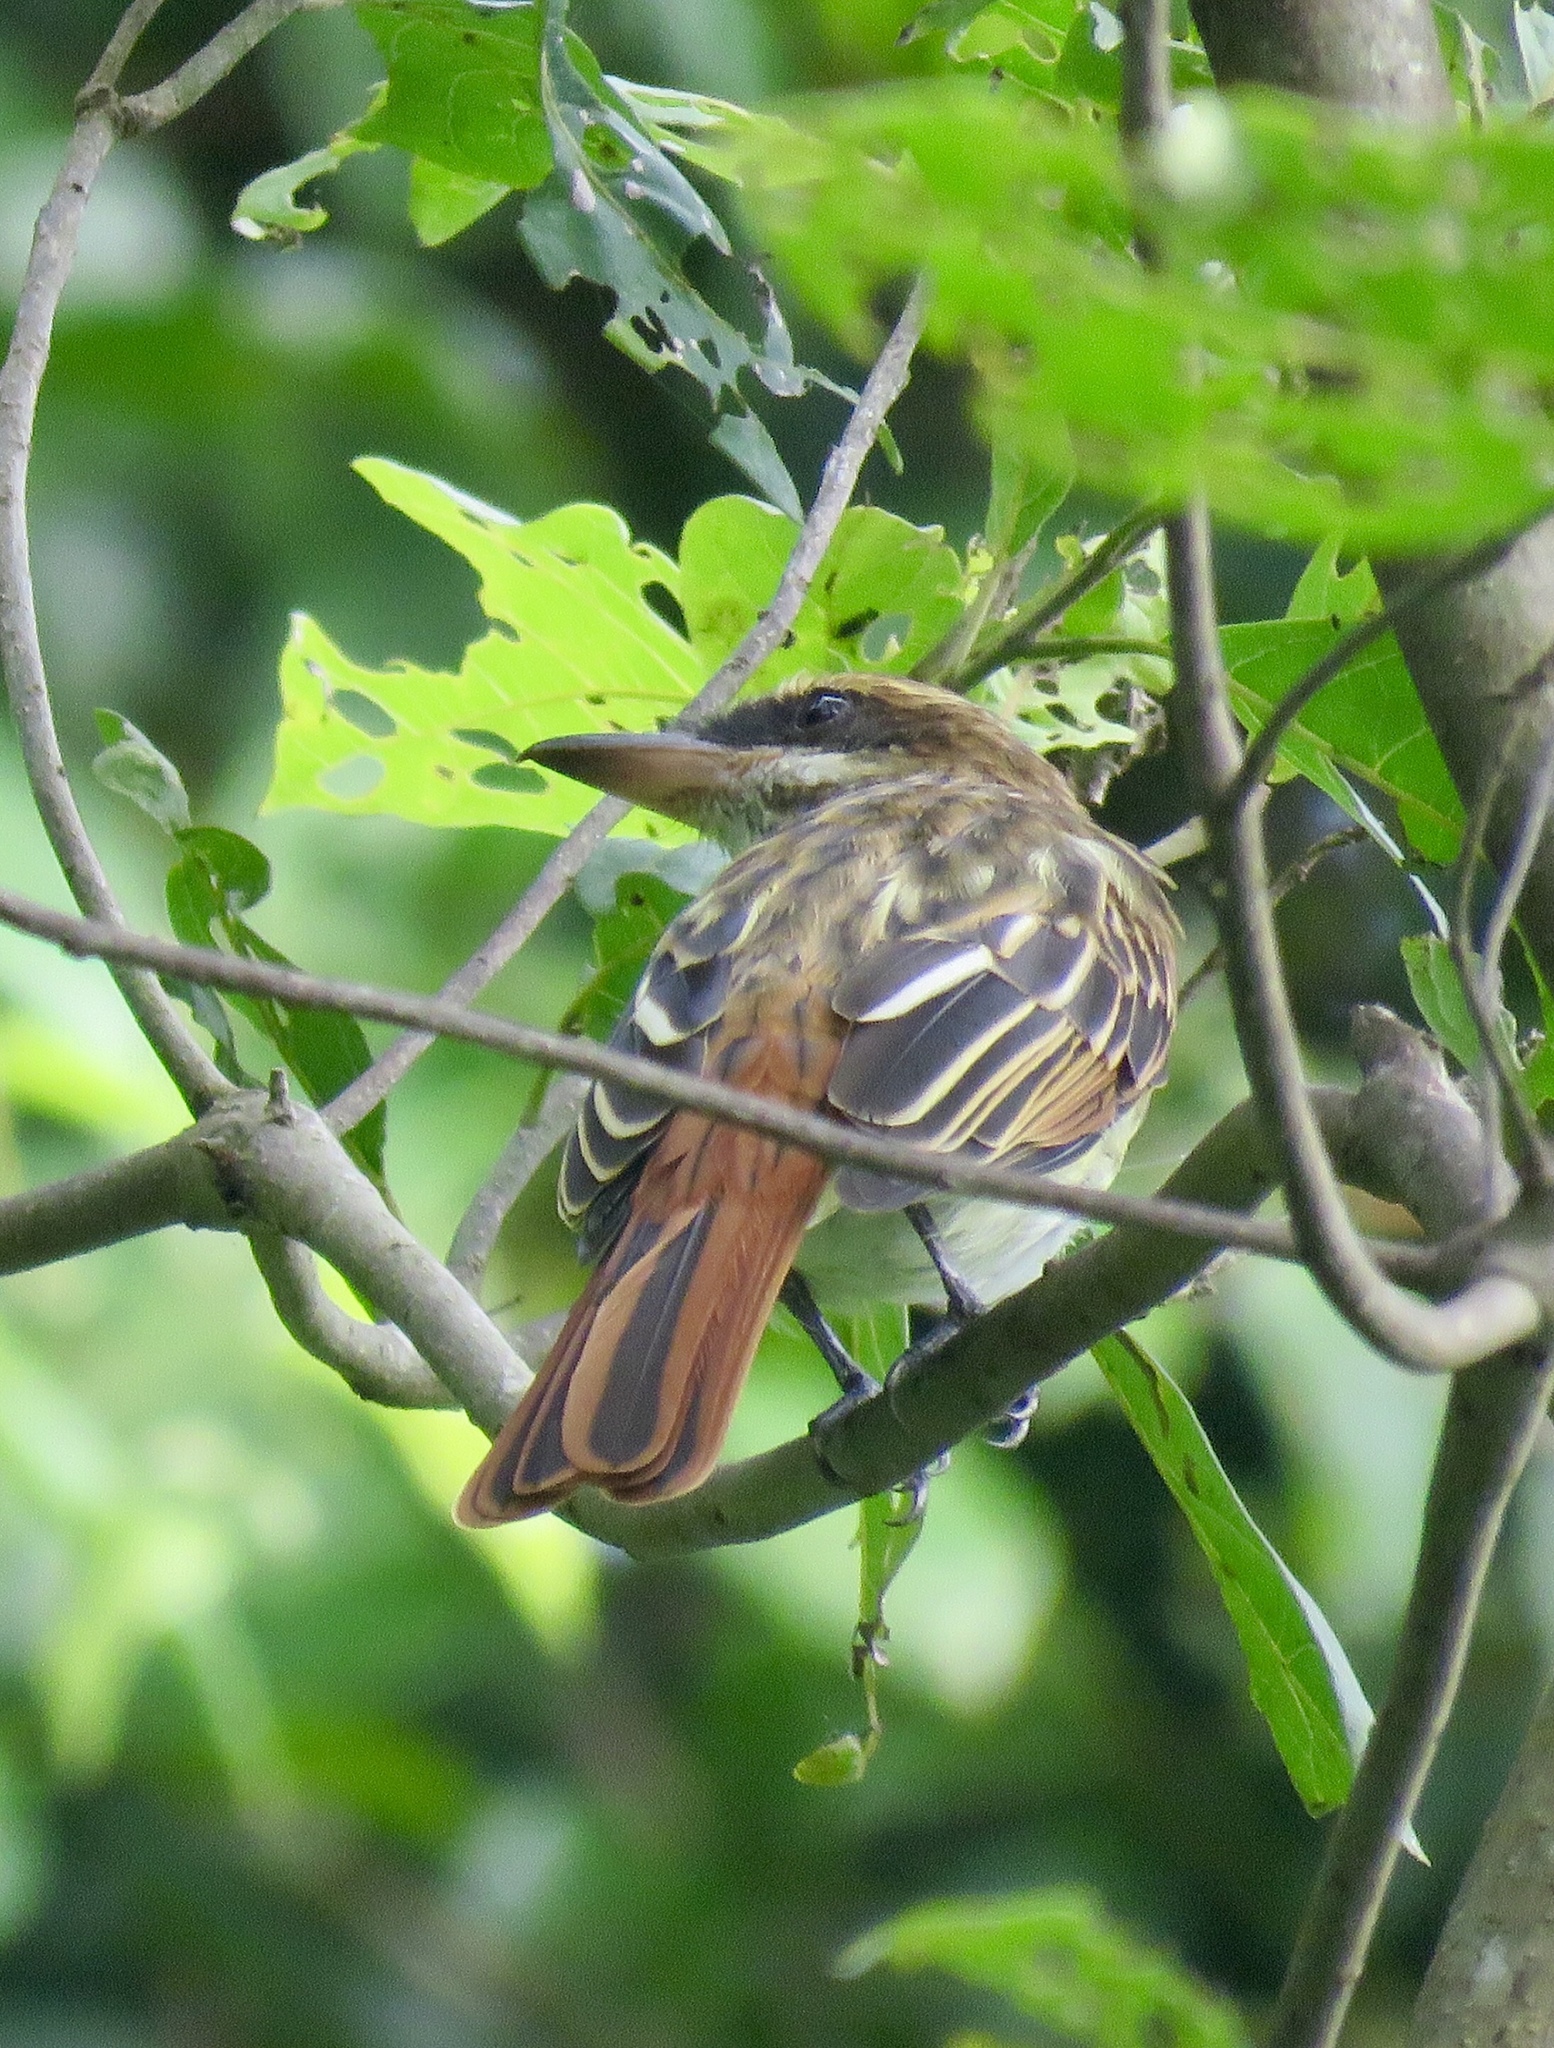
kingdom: Animalia
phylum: Chordata
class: Aves
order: Passeriformes
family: Tyrannidae
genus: Myiodynastes
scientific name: Myiodynastes maculatus
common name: Streaked flycatcher
